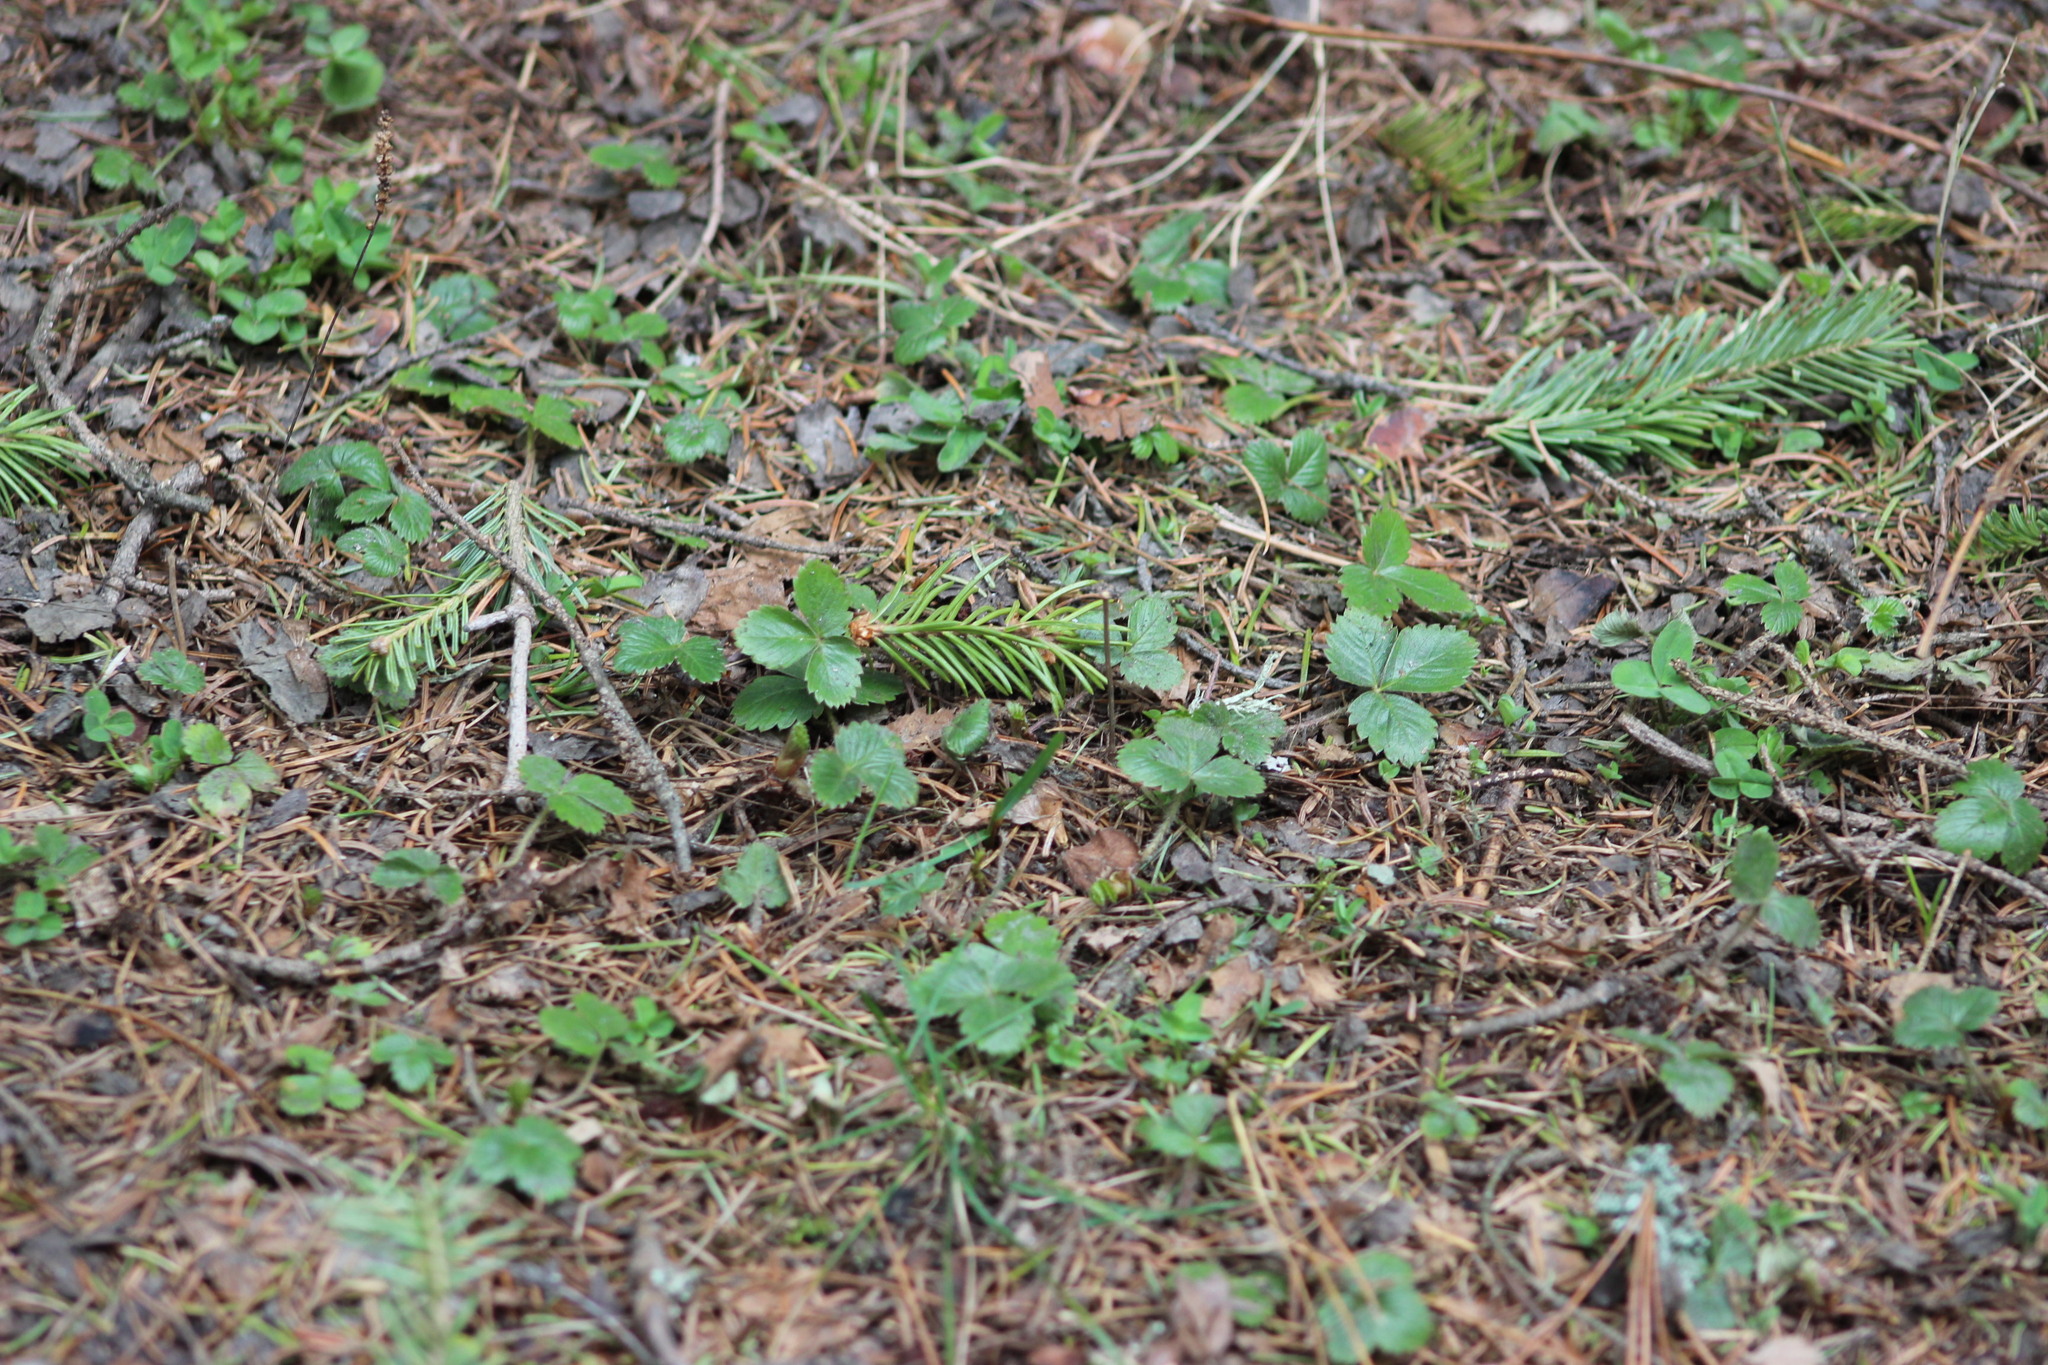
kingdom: Plantae
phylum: Tracheophyta
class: Magnoliopsida
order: Rosales
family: Rosaceae
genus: Fragaria
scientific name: Fragaria vesca
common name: Wild strawberry
